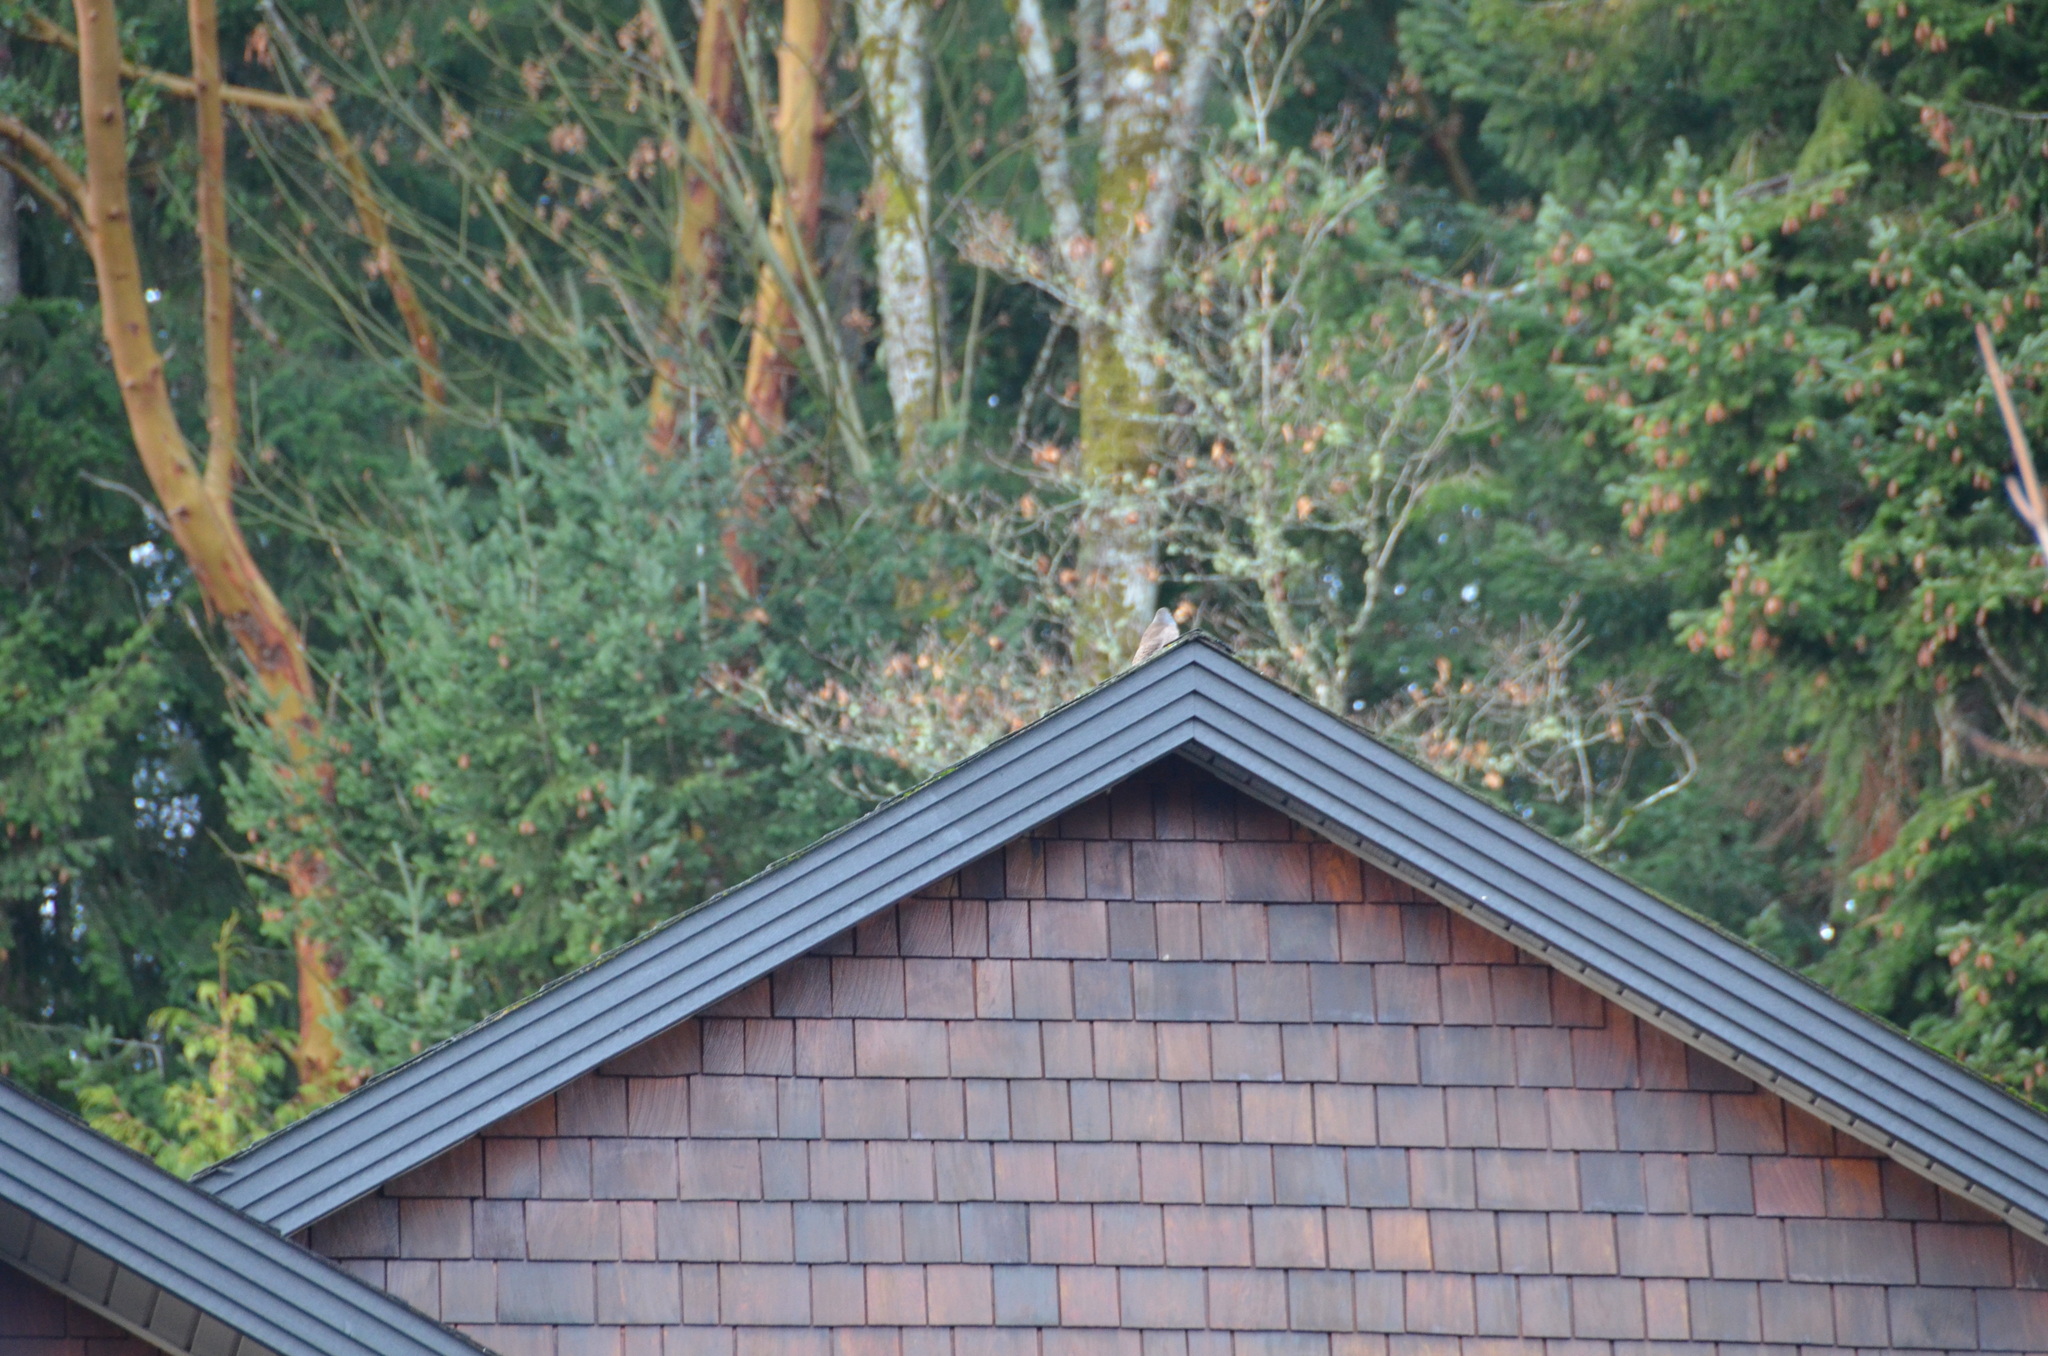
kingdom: Animalia
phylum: Chordata
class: Aves
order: Piciformes
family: Picidae
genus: Colaptes
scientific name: Colaptes auratus
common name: Northern flicker
